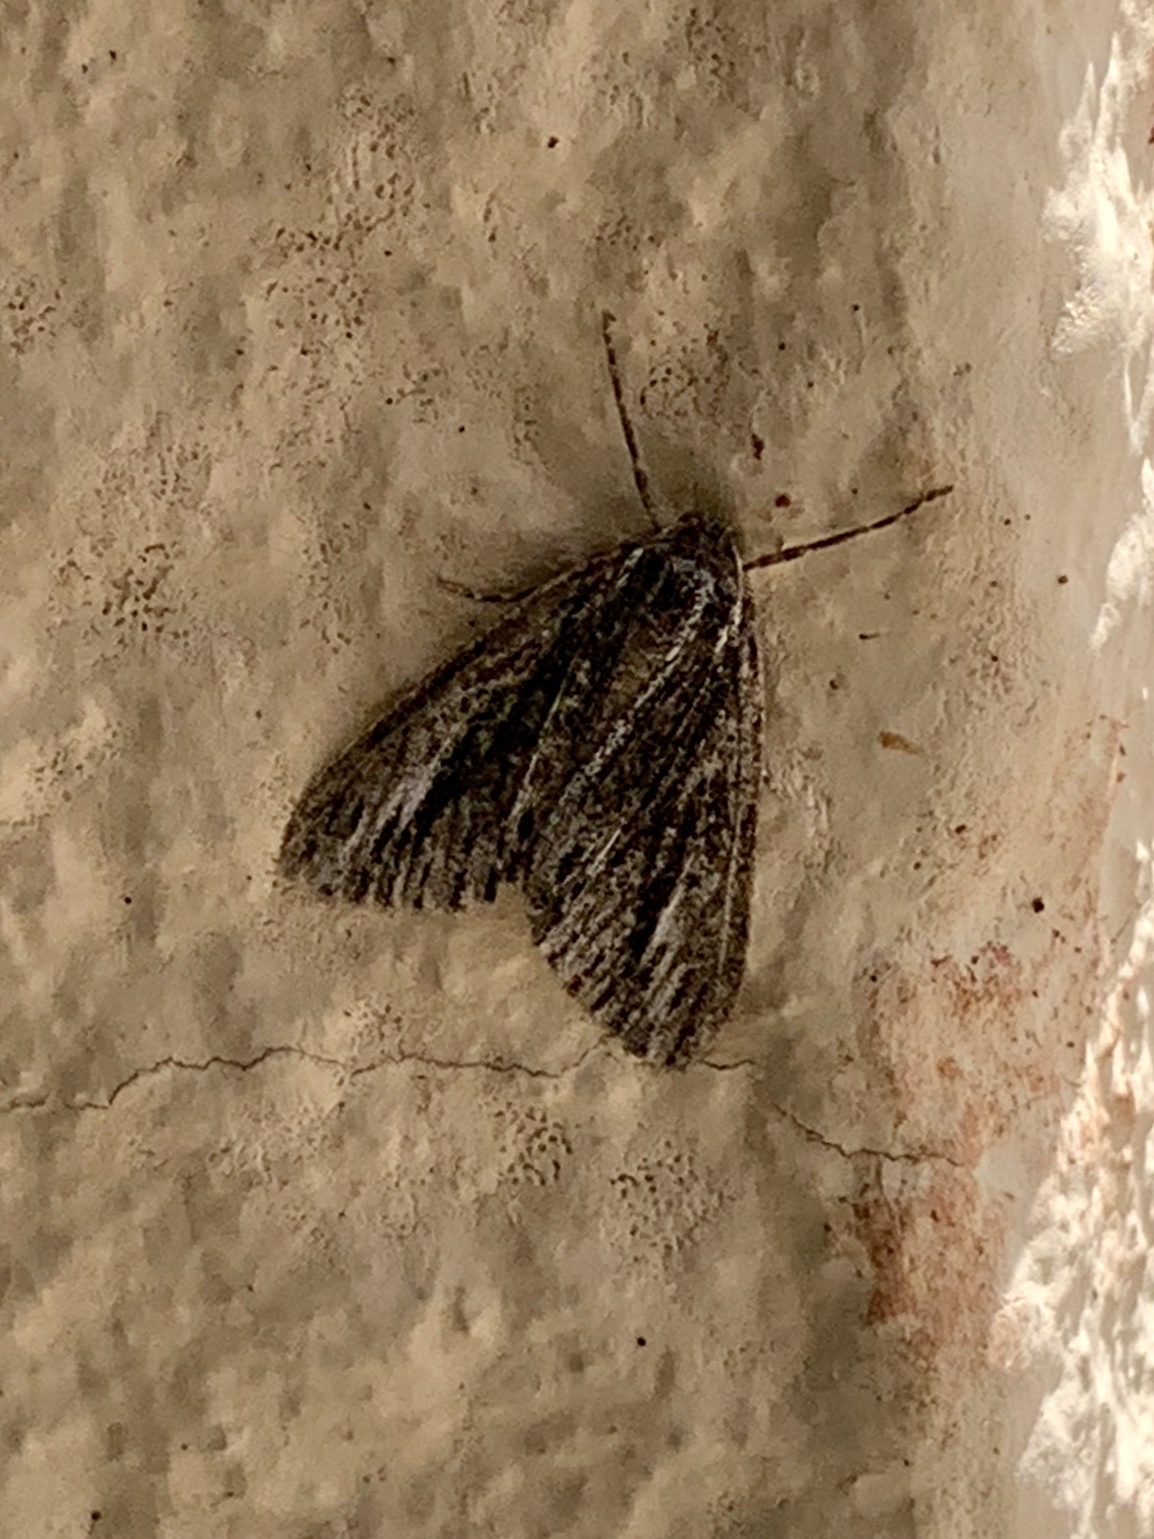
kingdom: Animalia
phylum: Arthropoda
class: Insecta
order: Lepidoptera
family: Geometridae
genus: Carphoides
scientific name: Carphoides incopriarius
